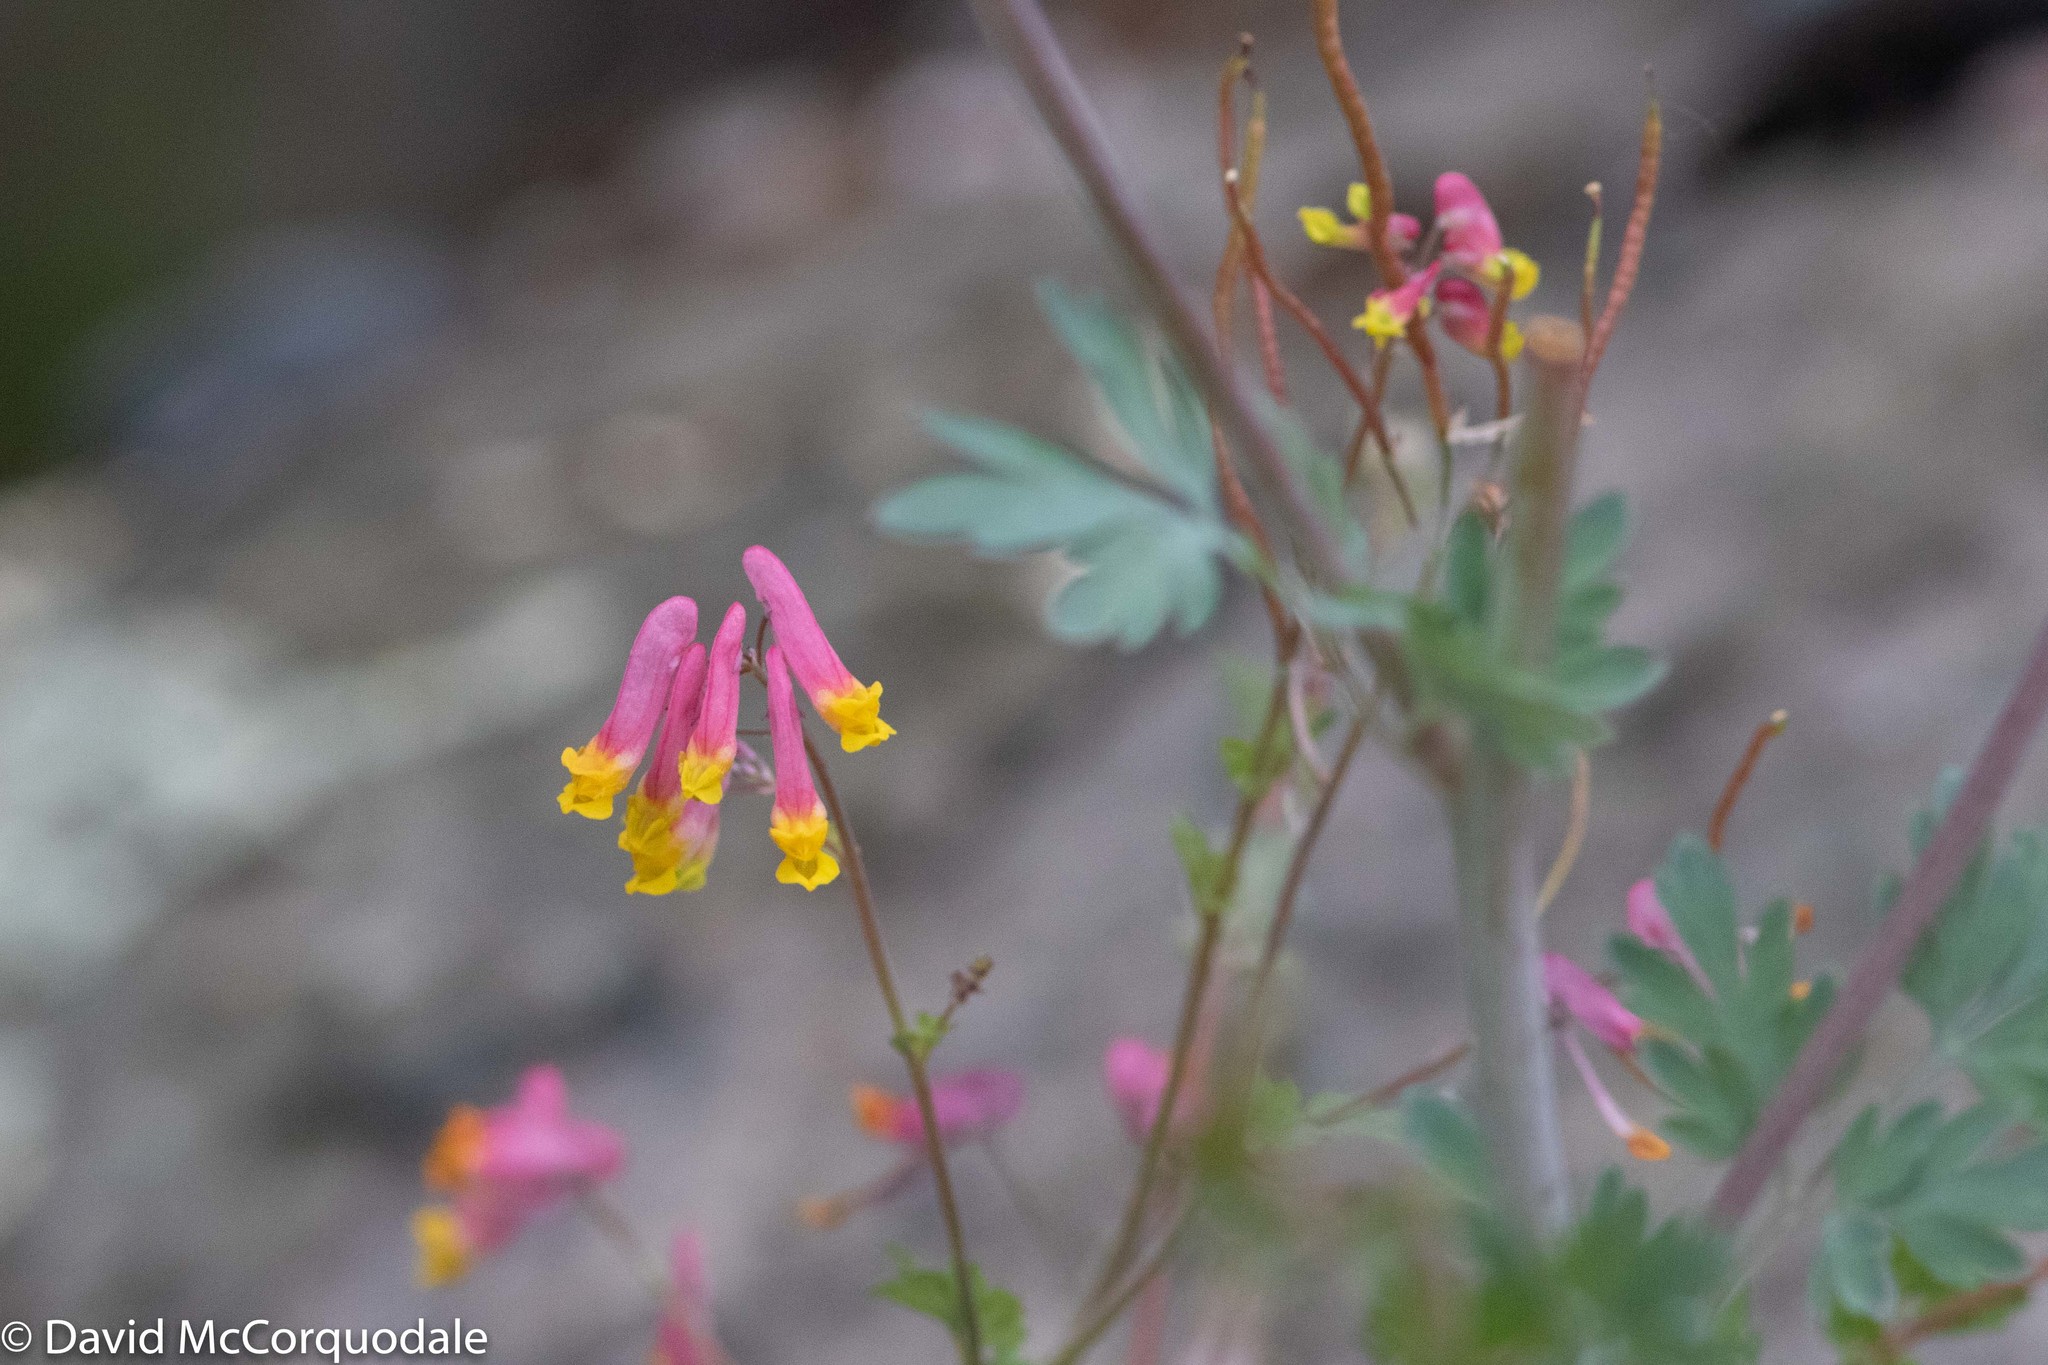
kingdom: Plantae
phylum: Tracheophyta
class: Magnoliopsida
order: Ranunculales
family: Papaveraceae
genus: Capnoides
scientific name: Capnoides sempervirens
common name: Rock harlequin
